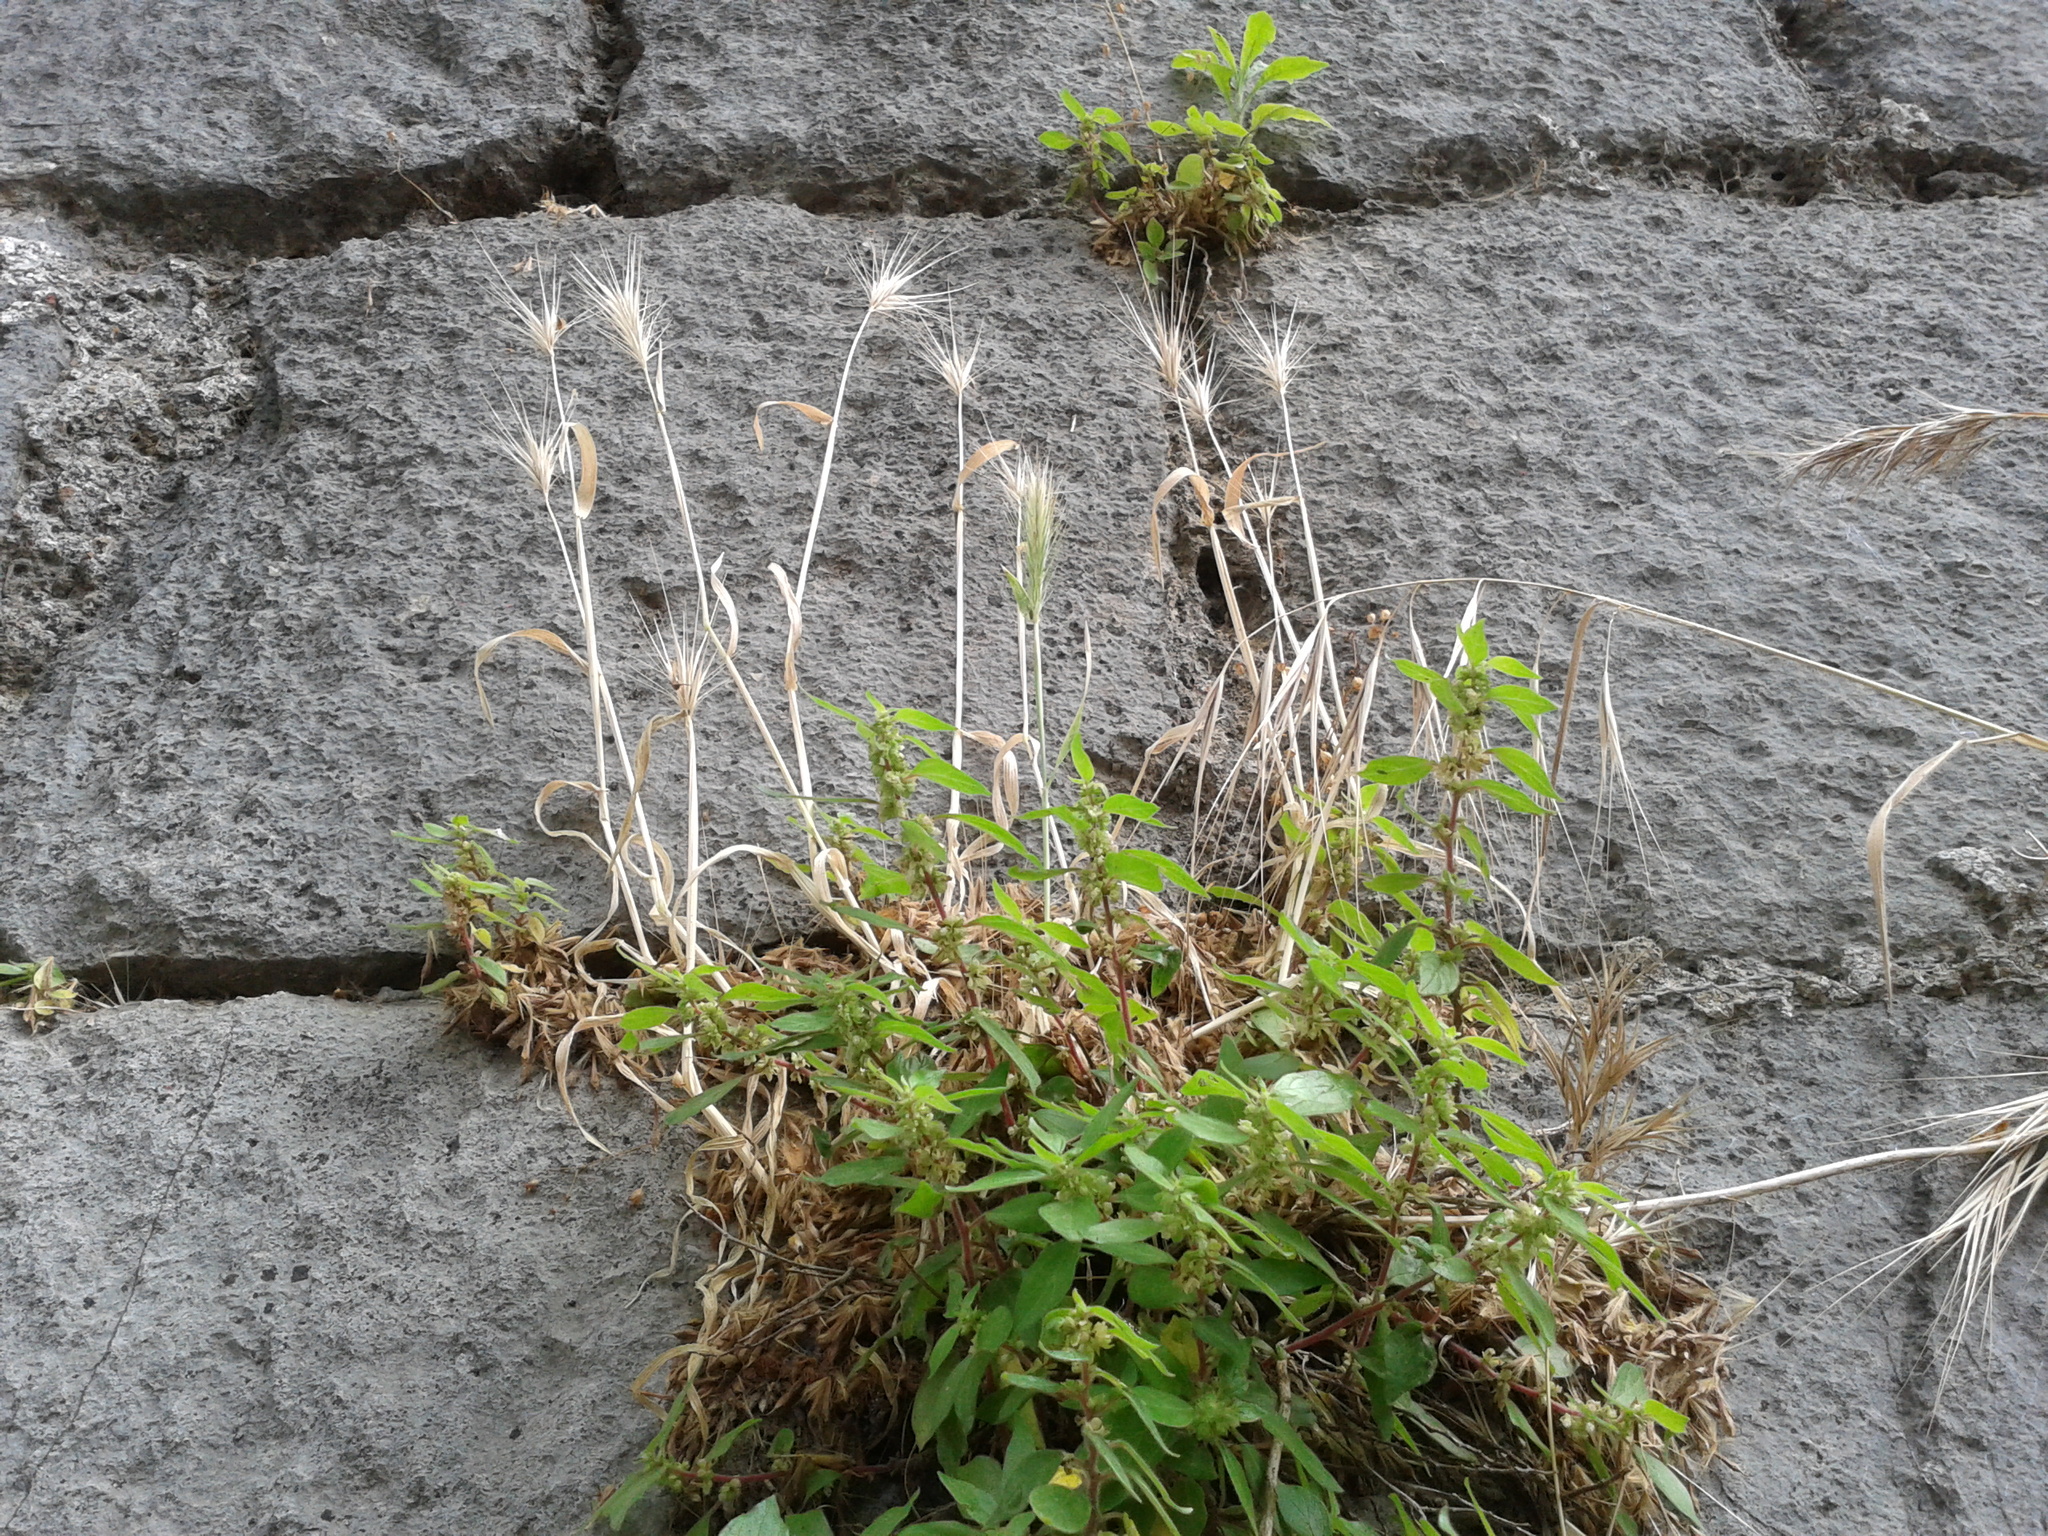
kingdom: Plantae
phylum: Tracheophyta
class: Liliopsida
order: Poales
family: Poaceae
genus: Hordeum
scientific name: Hordeum murinum
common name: Wall barley
